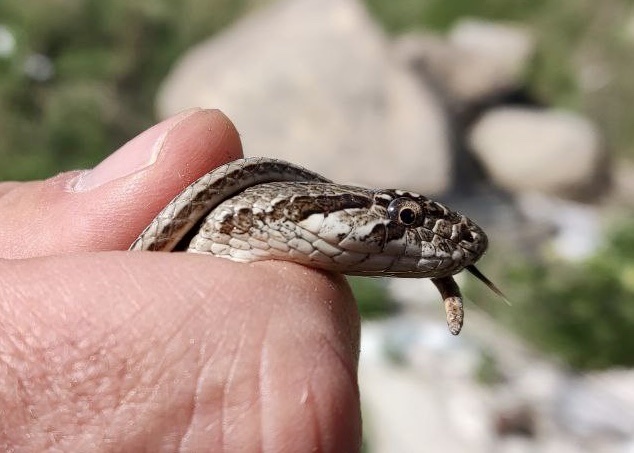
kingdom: Animalia
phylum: Chordata
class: Squamata
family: Colubridae
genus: Hemorrhois
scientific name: Hemorrhois ravergieri
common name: Spotted whip snake
